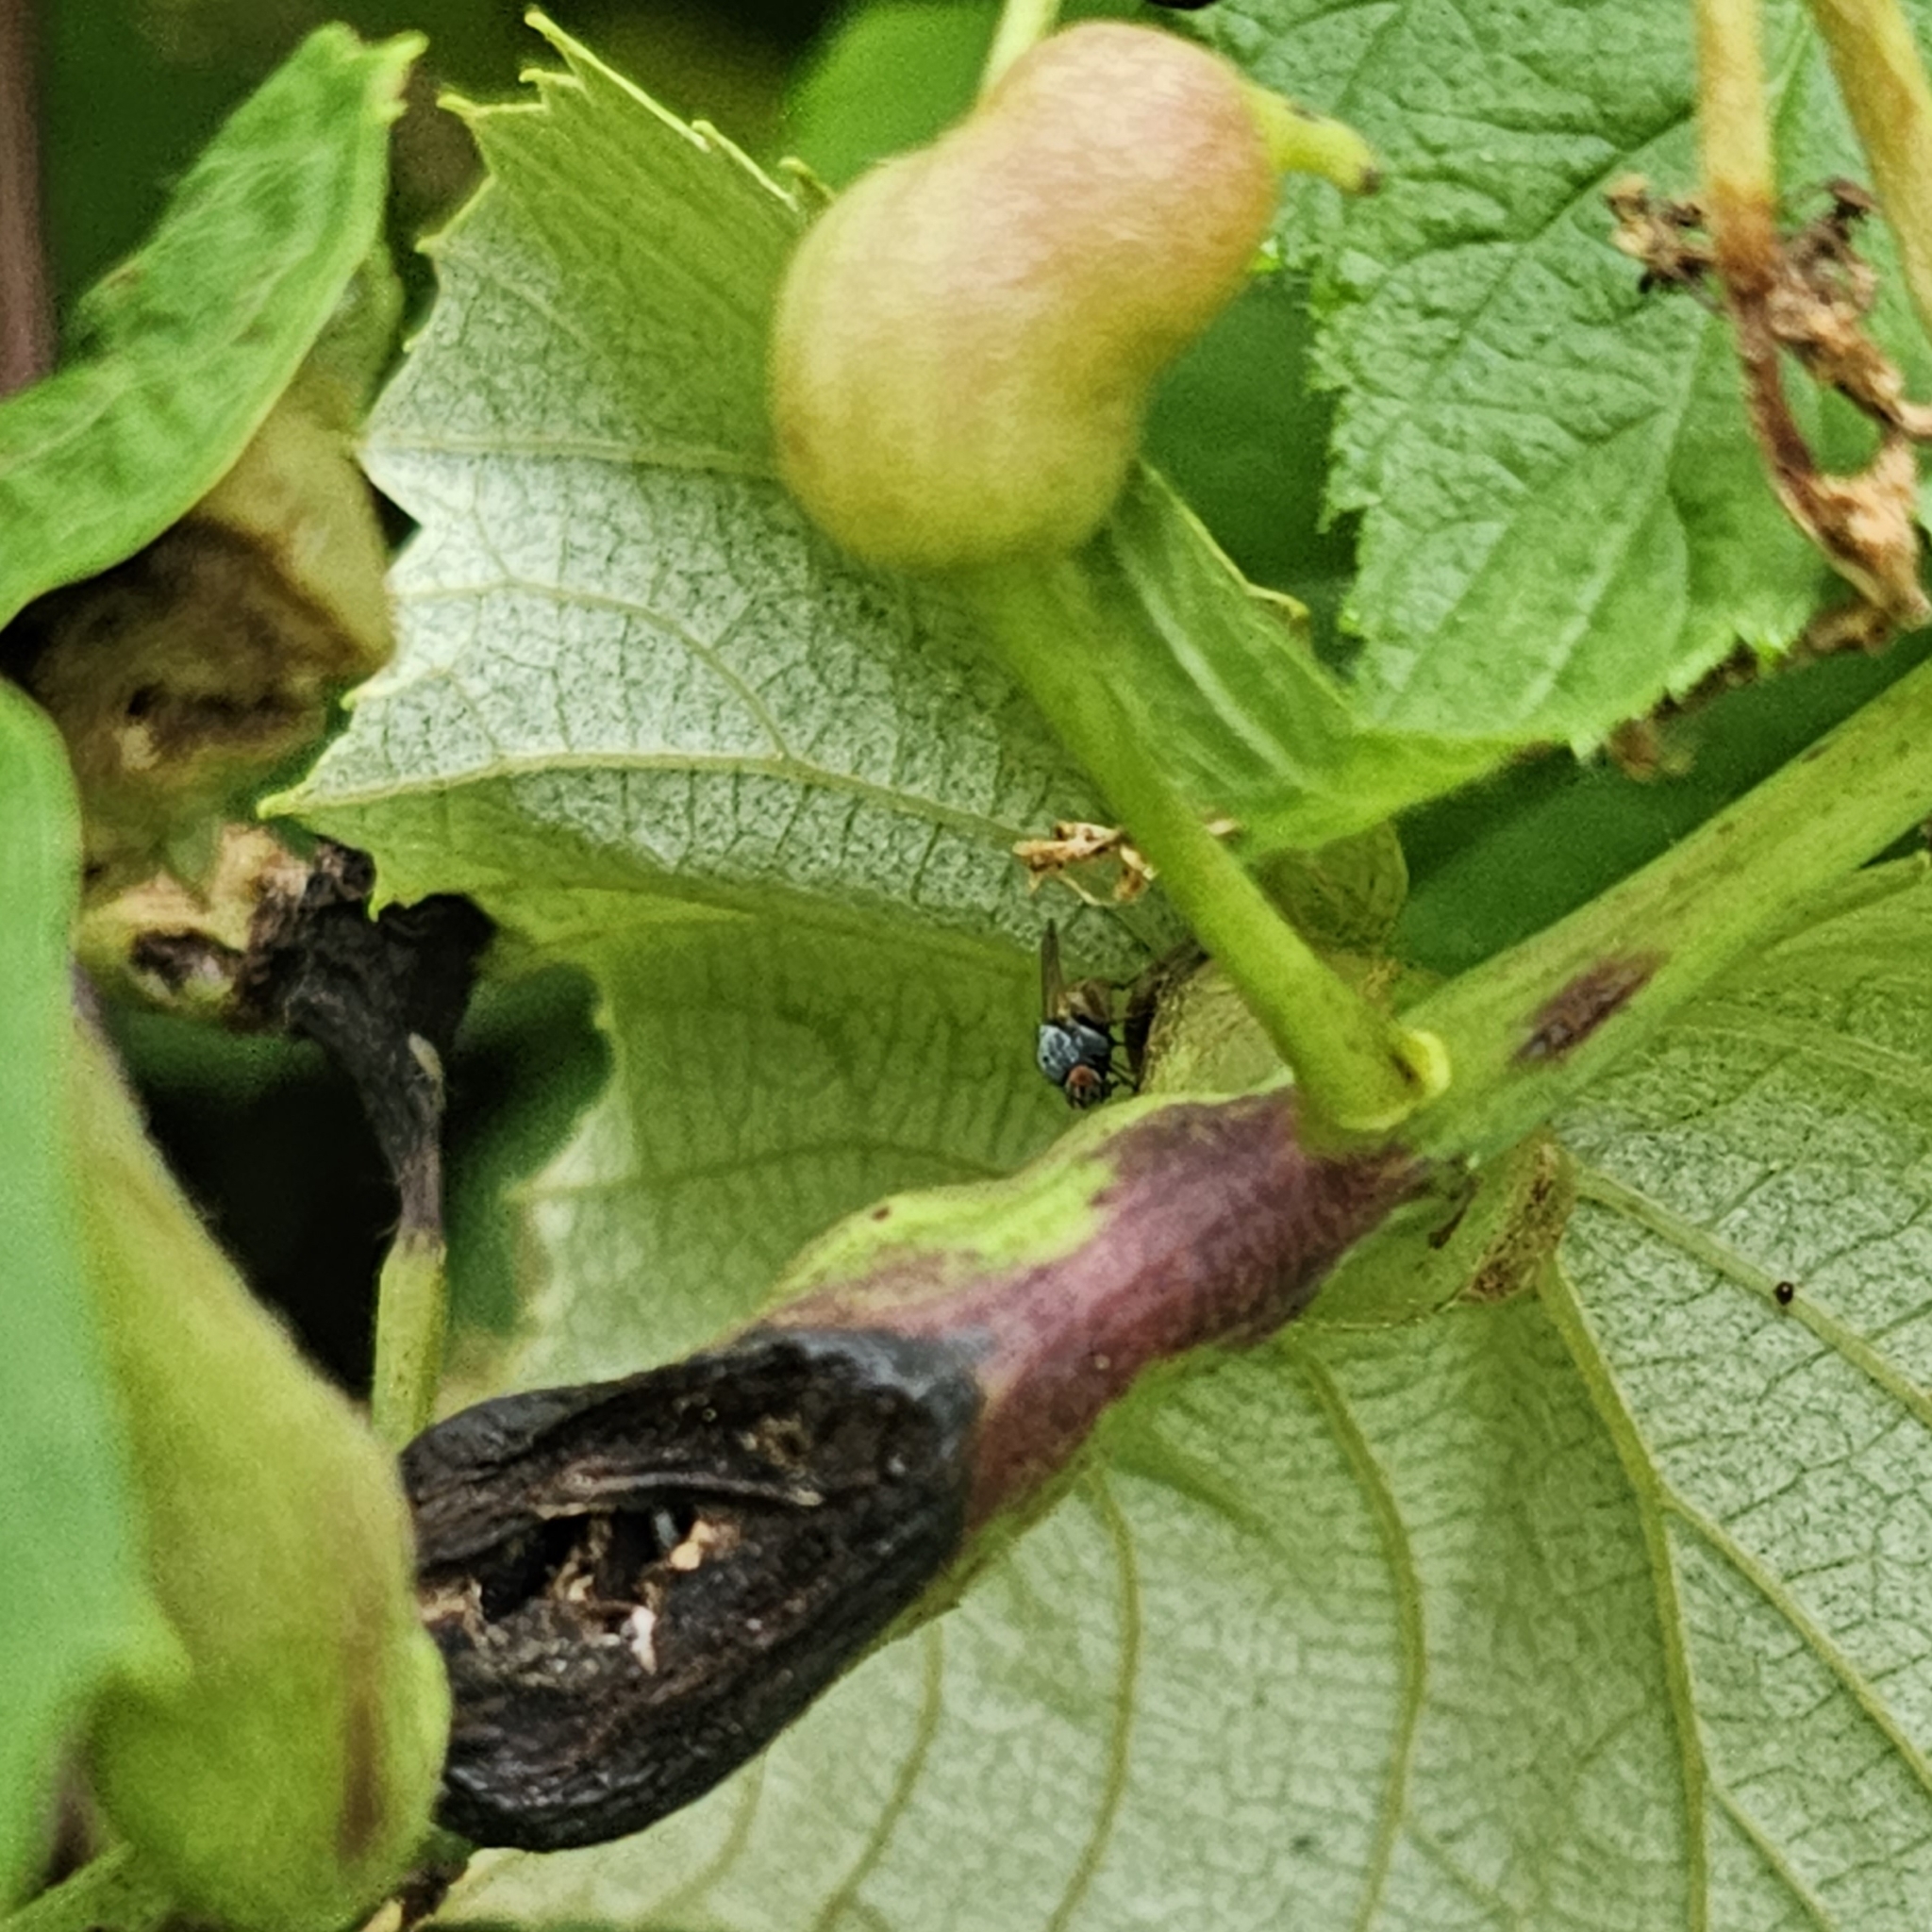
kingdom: Animalia
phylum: Arthropoda
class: Insecta
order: Diptera
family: Cecidomyiidae
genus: Vitisiella
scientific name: Vitisiella brevicauda
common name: Grape tumid gallmaker midge
